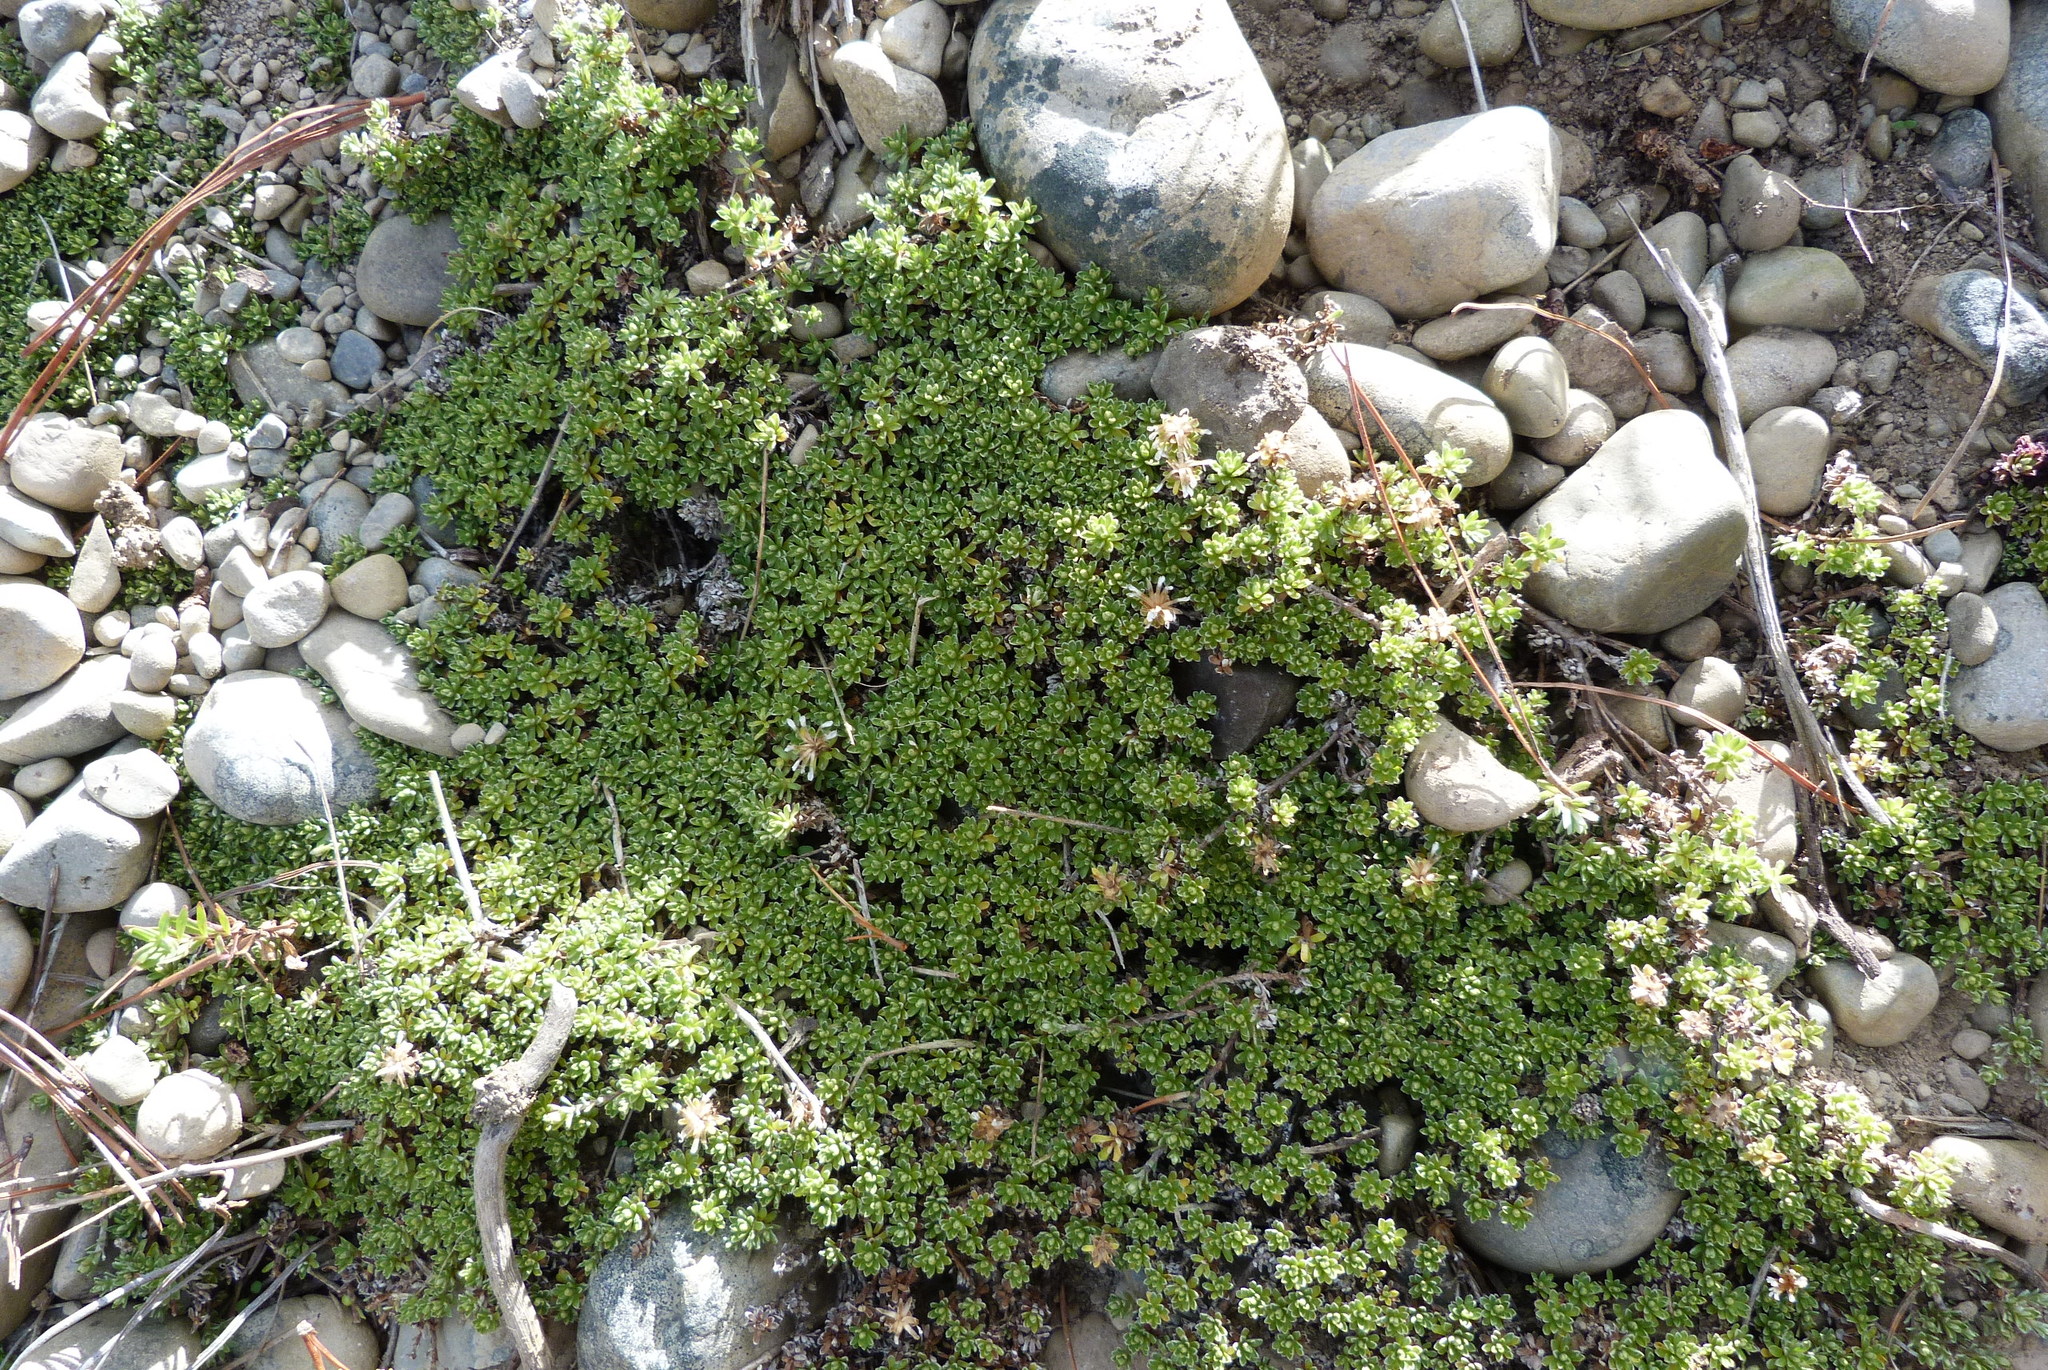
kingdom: Plantae
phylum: Tracheophyta
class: Magnoliopsida
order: Asterales
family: Asteraceae
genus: Raoulia
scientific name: Raoulia subsericea
